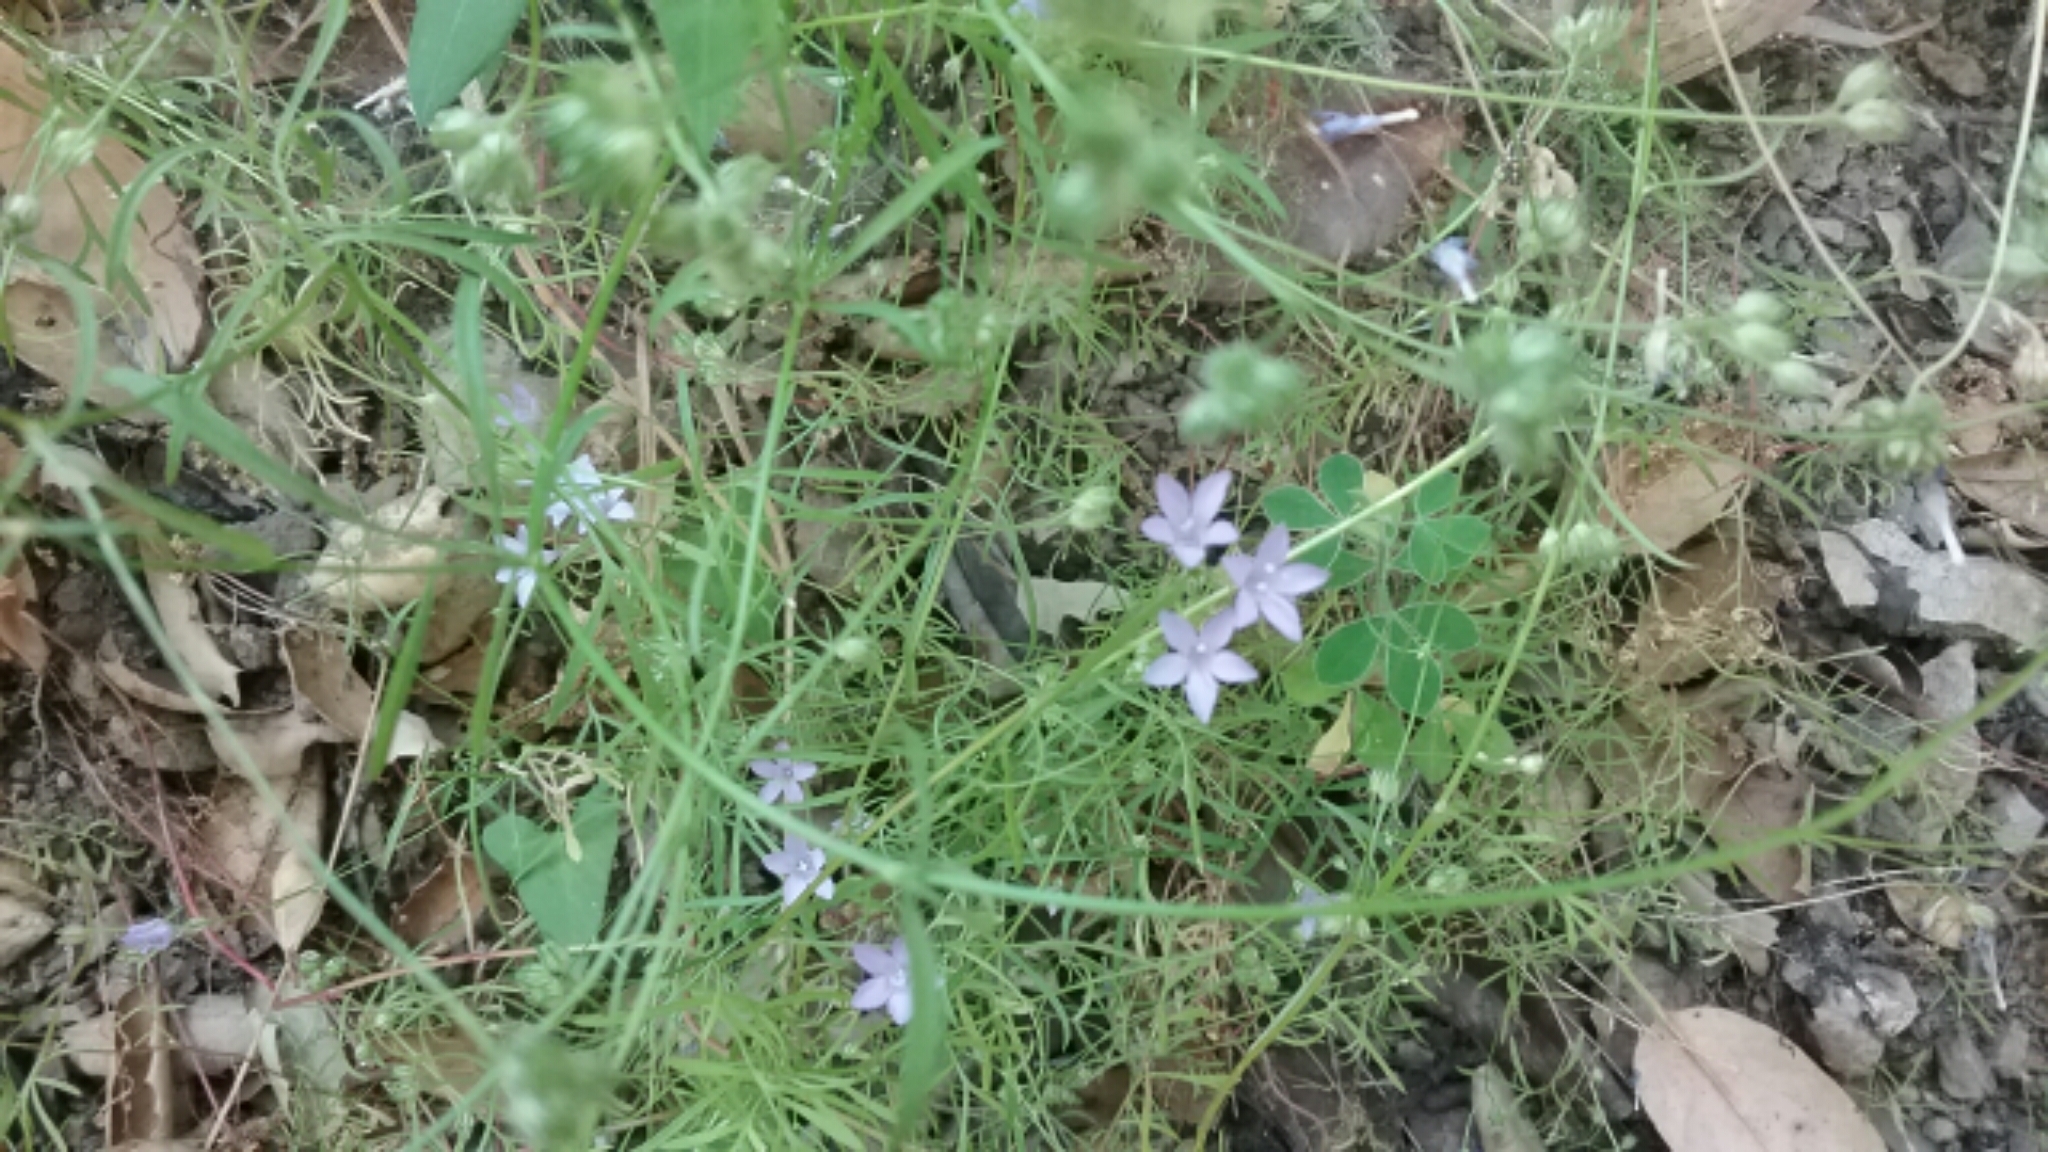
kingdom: Plantae
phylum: Tracheophyta
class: Magnoliopsida
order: Ericales
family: Polemoniaceae
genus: Gilia
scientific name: Gilia achilleifolia
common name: California gily-flower
